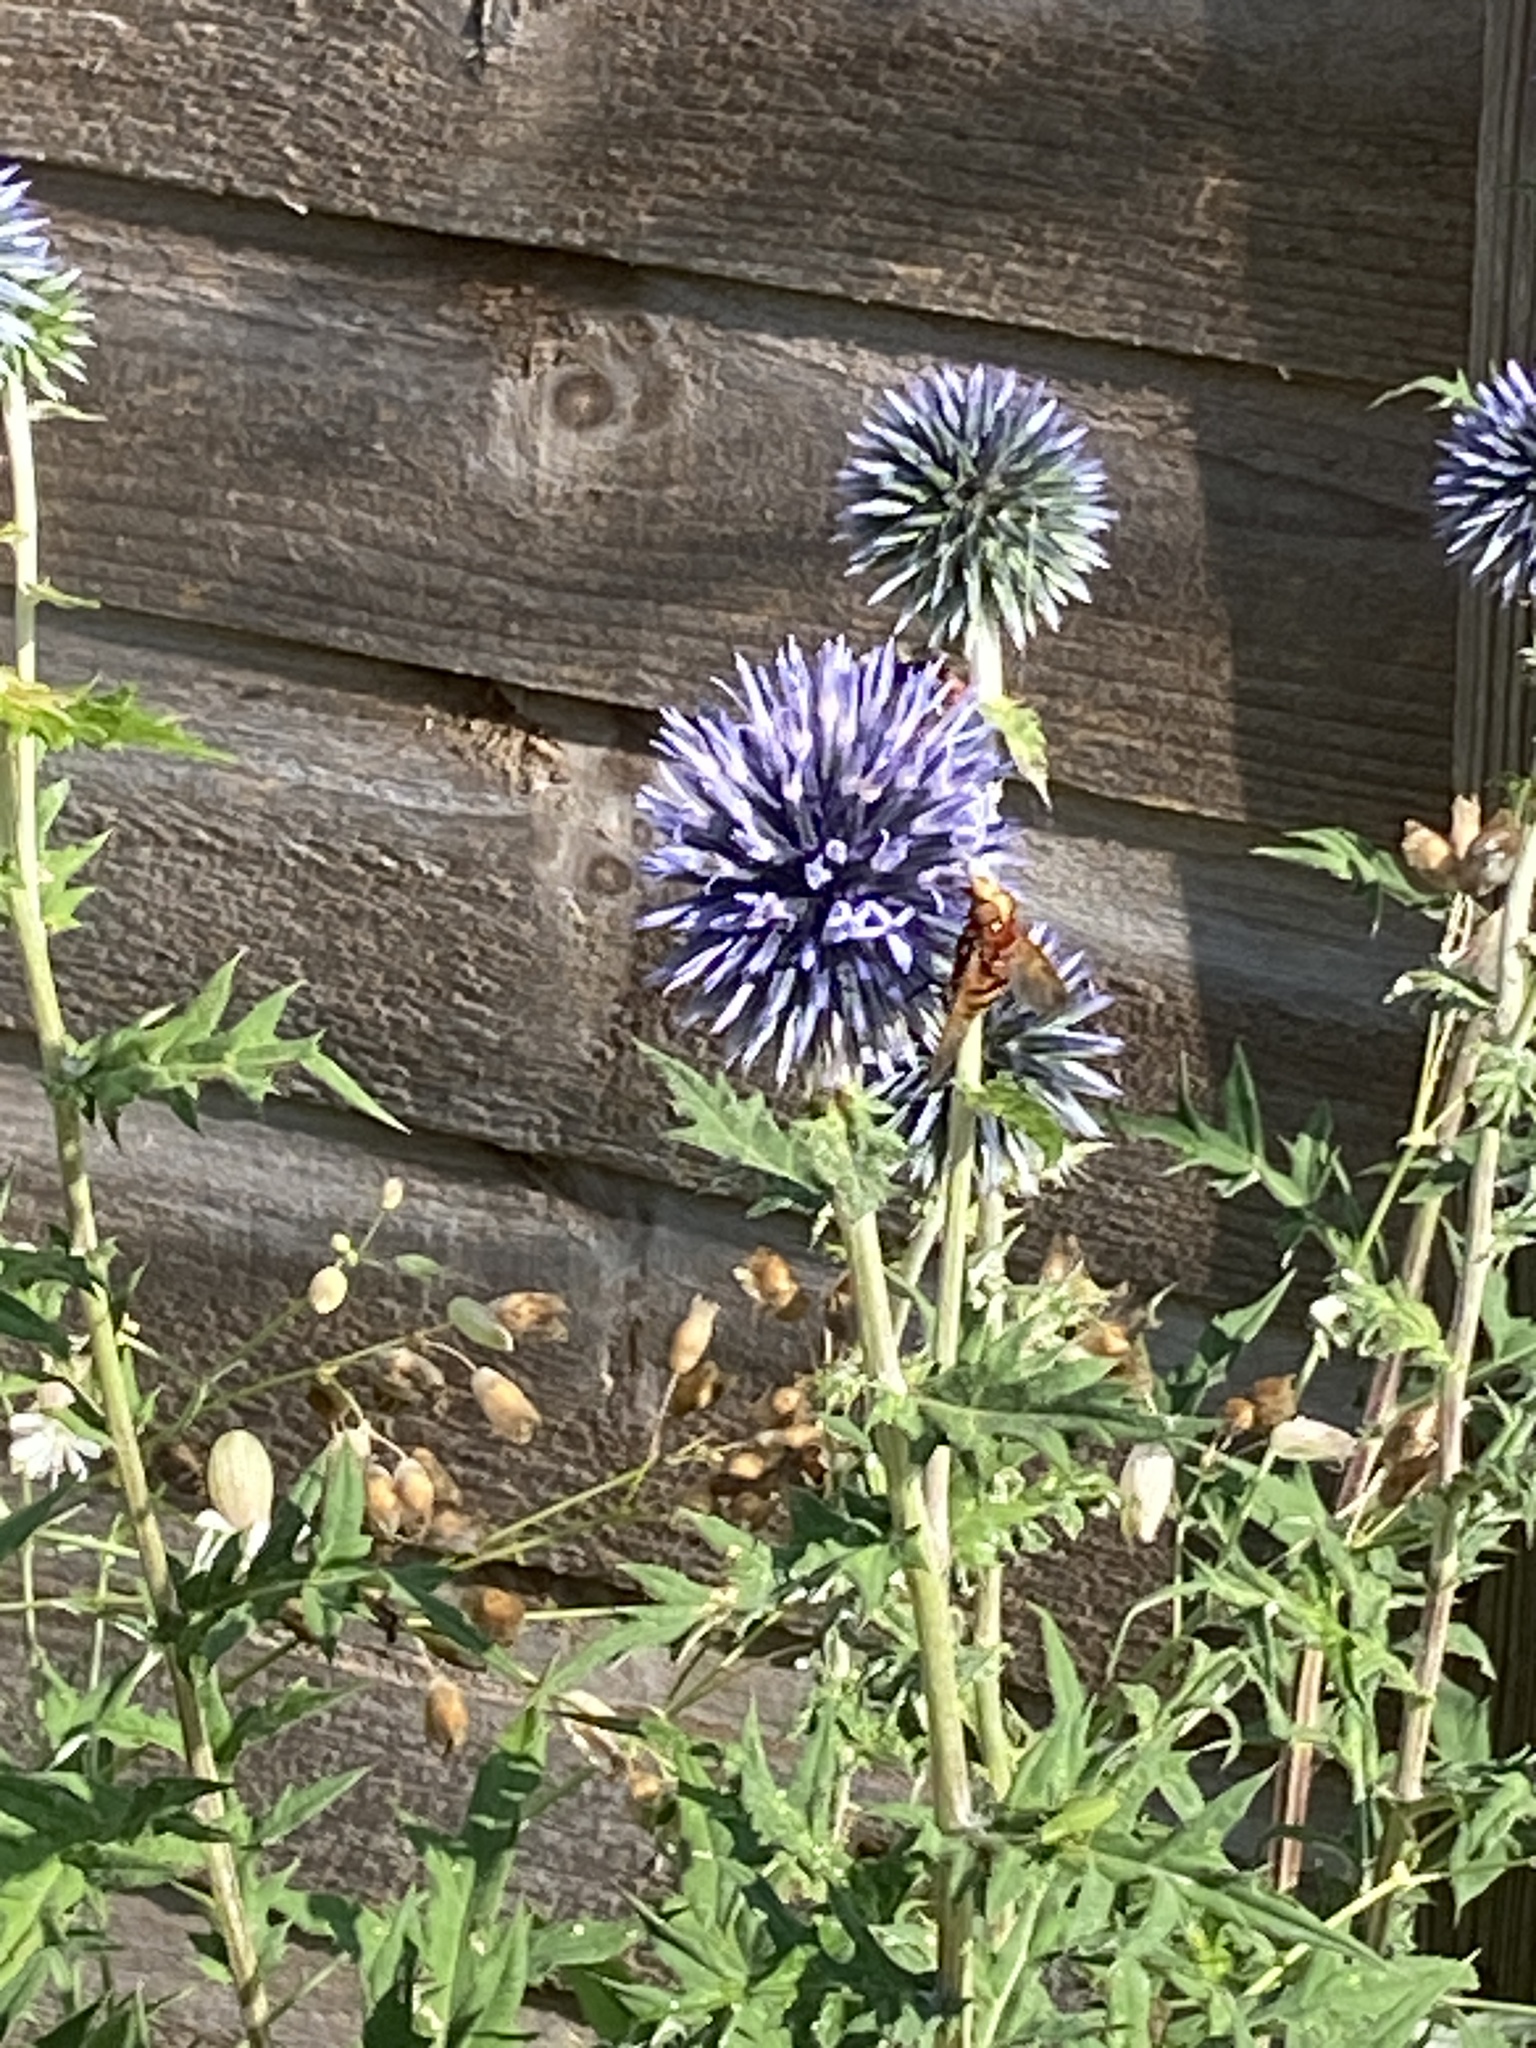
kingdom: Animalia
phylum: Arthropoda
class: Insecta
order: Diptera
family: Syrphidae
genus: Volucella
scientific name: Volucella zonaria
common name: Hornet hoverfly
